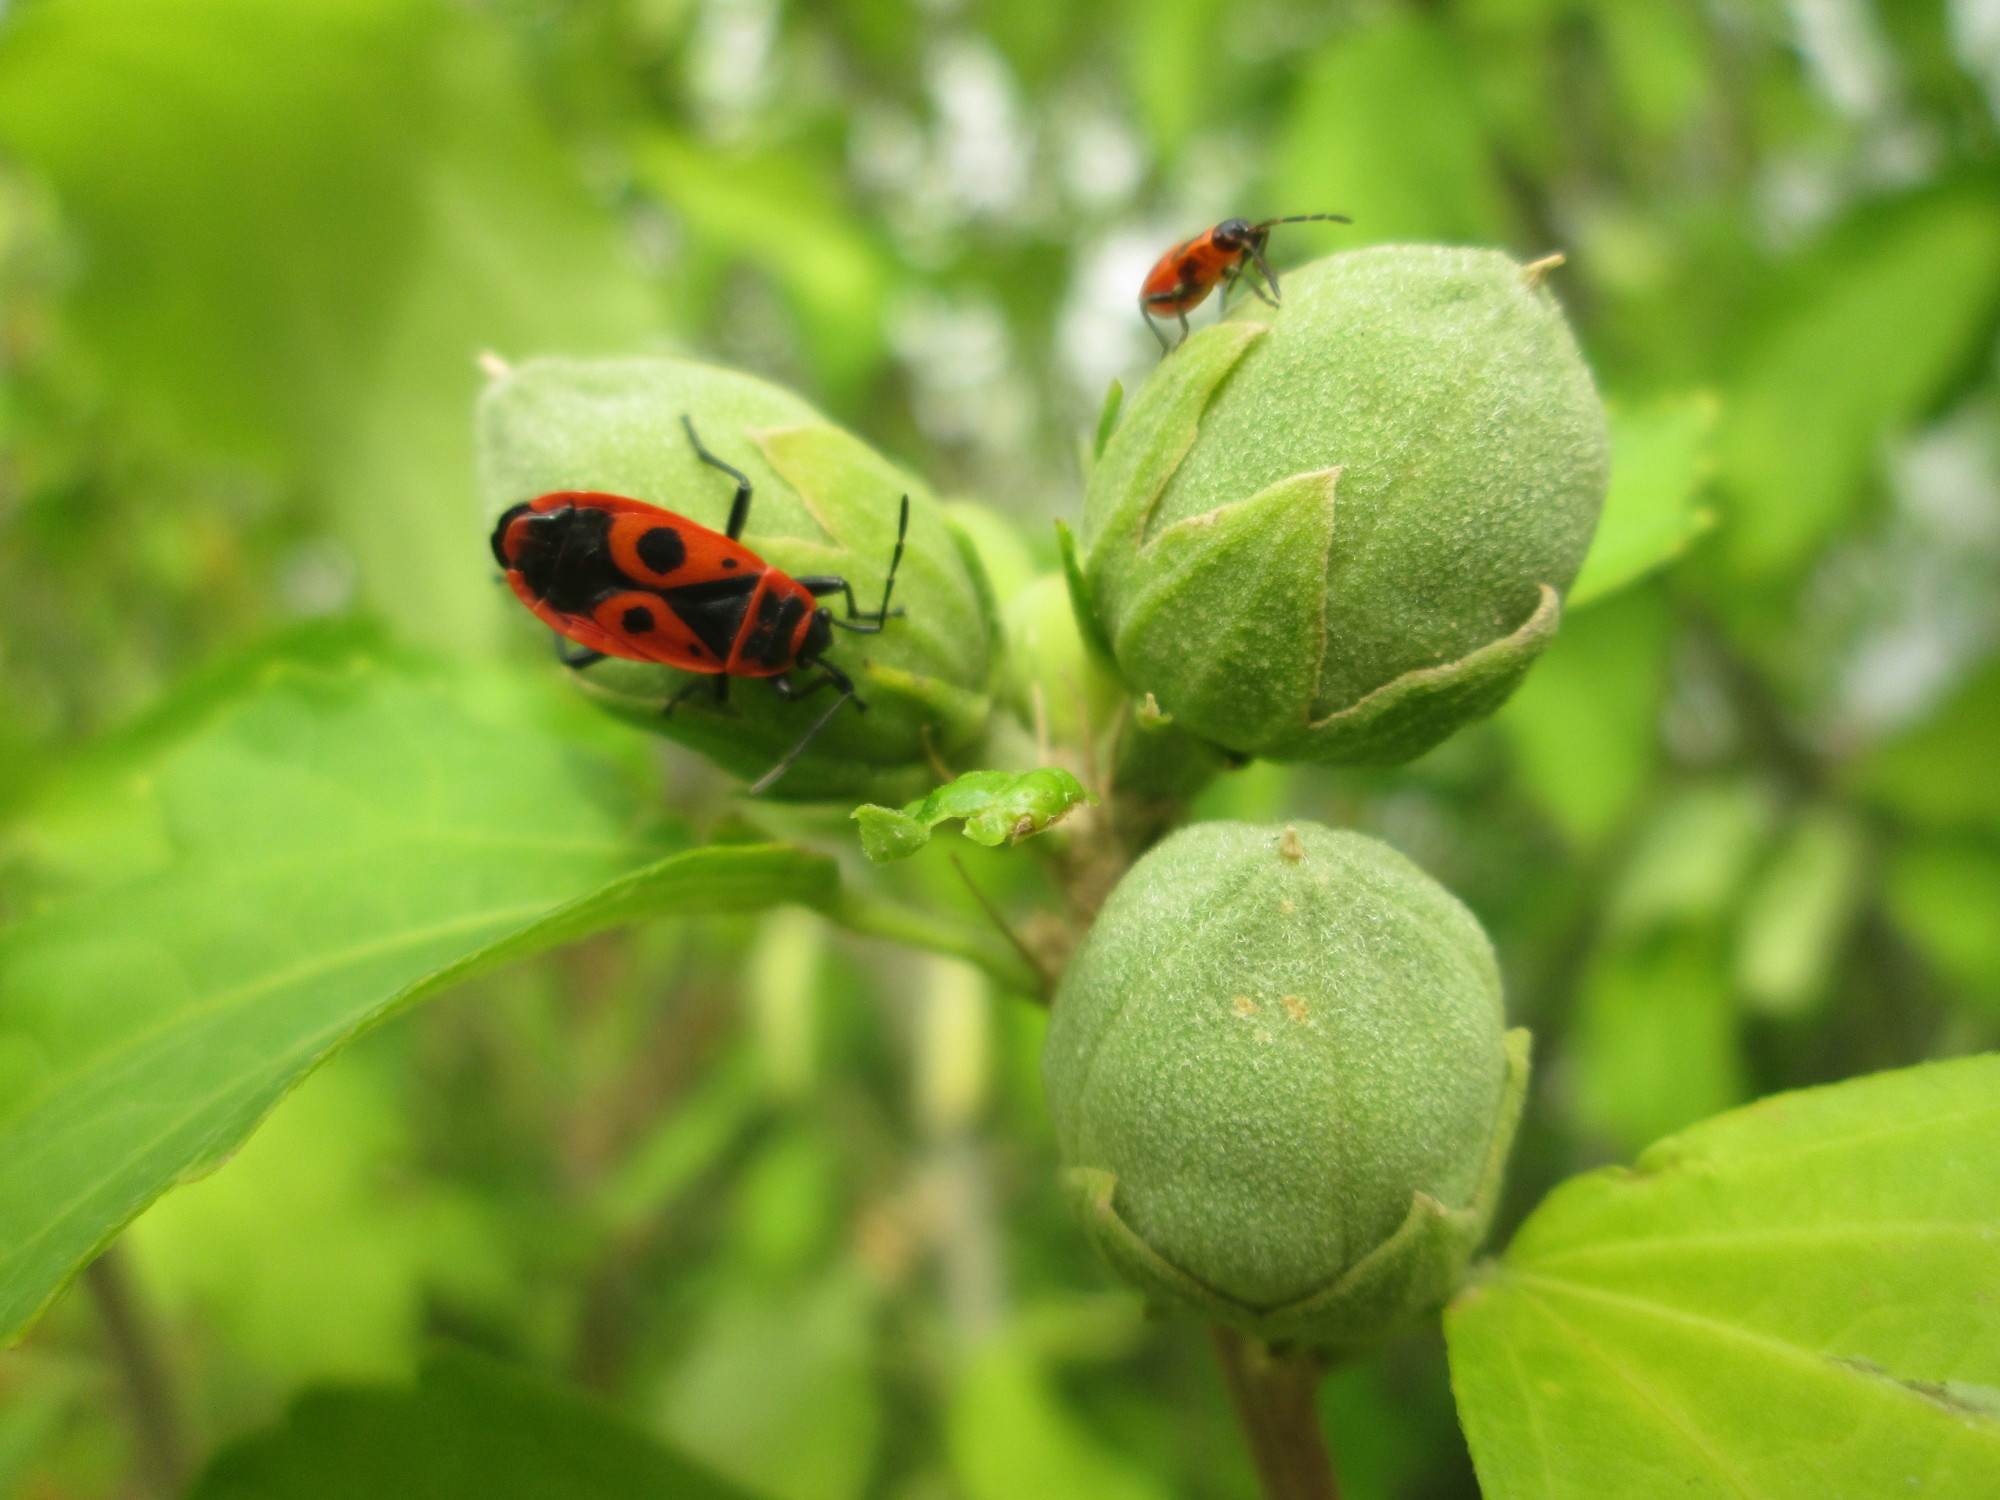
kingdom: Animalia
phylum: Arthropoda
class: Insecta
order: Hemiptera
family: Pyrrhocoridae
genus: Pyrrhocoris
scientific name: Pyrrhocoris apterus
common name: Firebug
